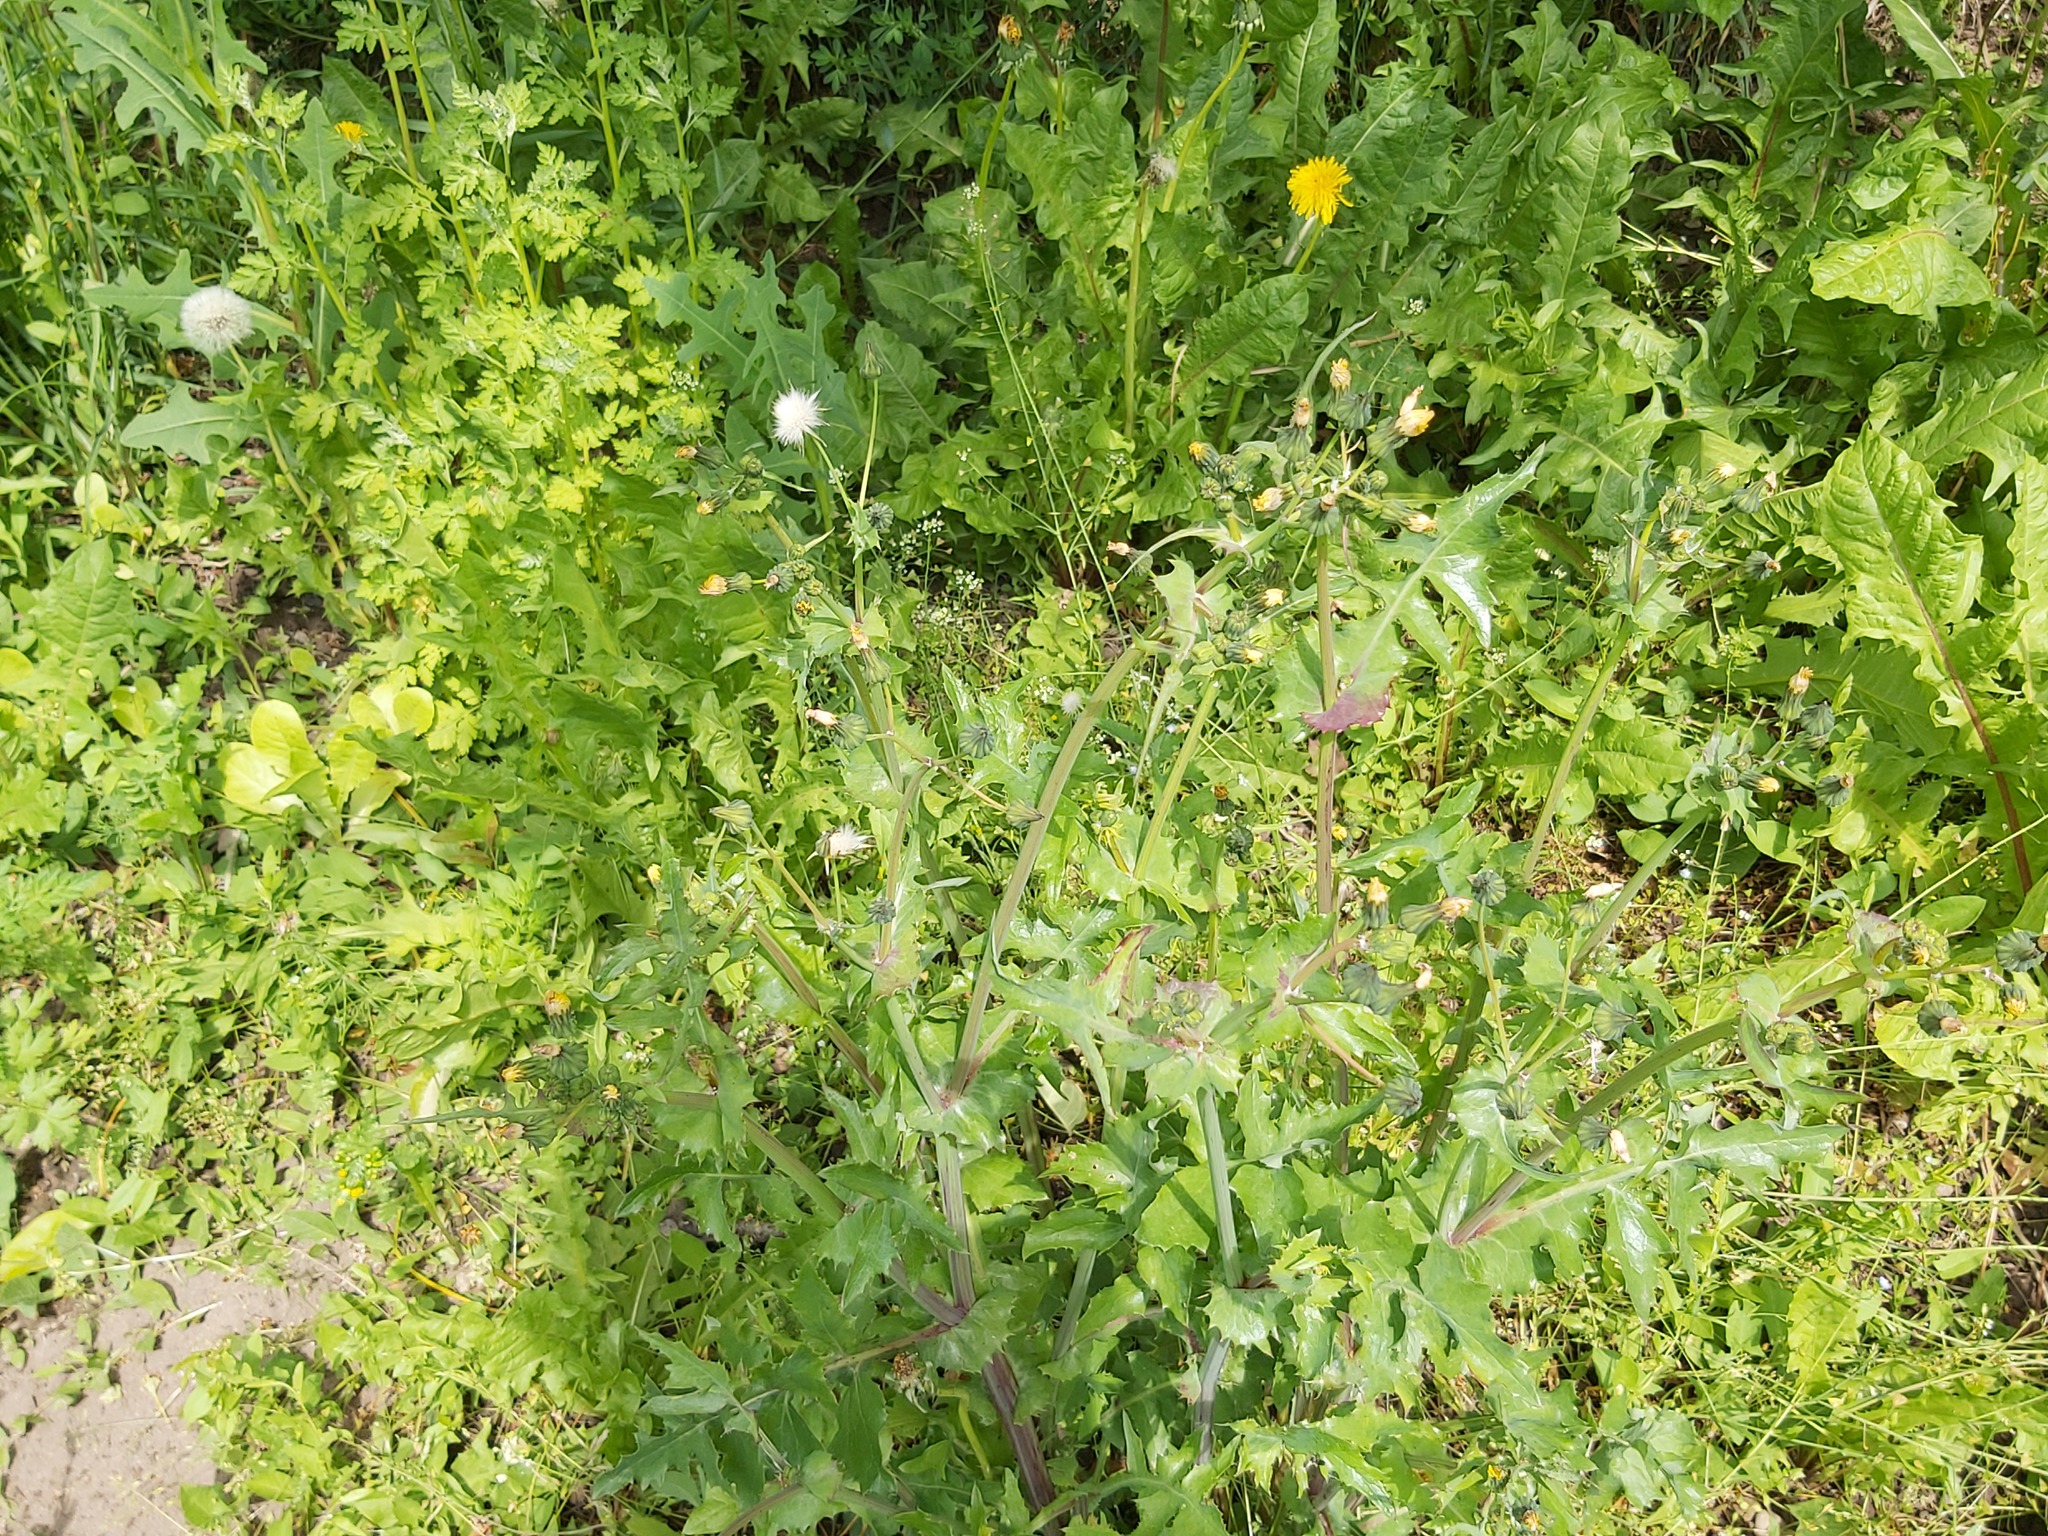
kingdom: Plantae
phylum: Tracheophyta
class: Magnoliopsida
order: Asterales
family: Asteraceae
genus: Sonchus
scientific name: Sonchus oleraceus
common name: Common sowthistle
